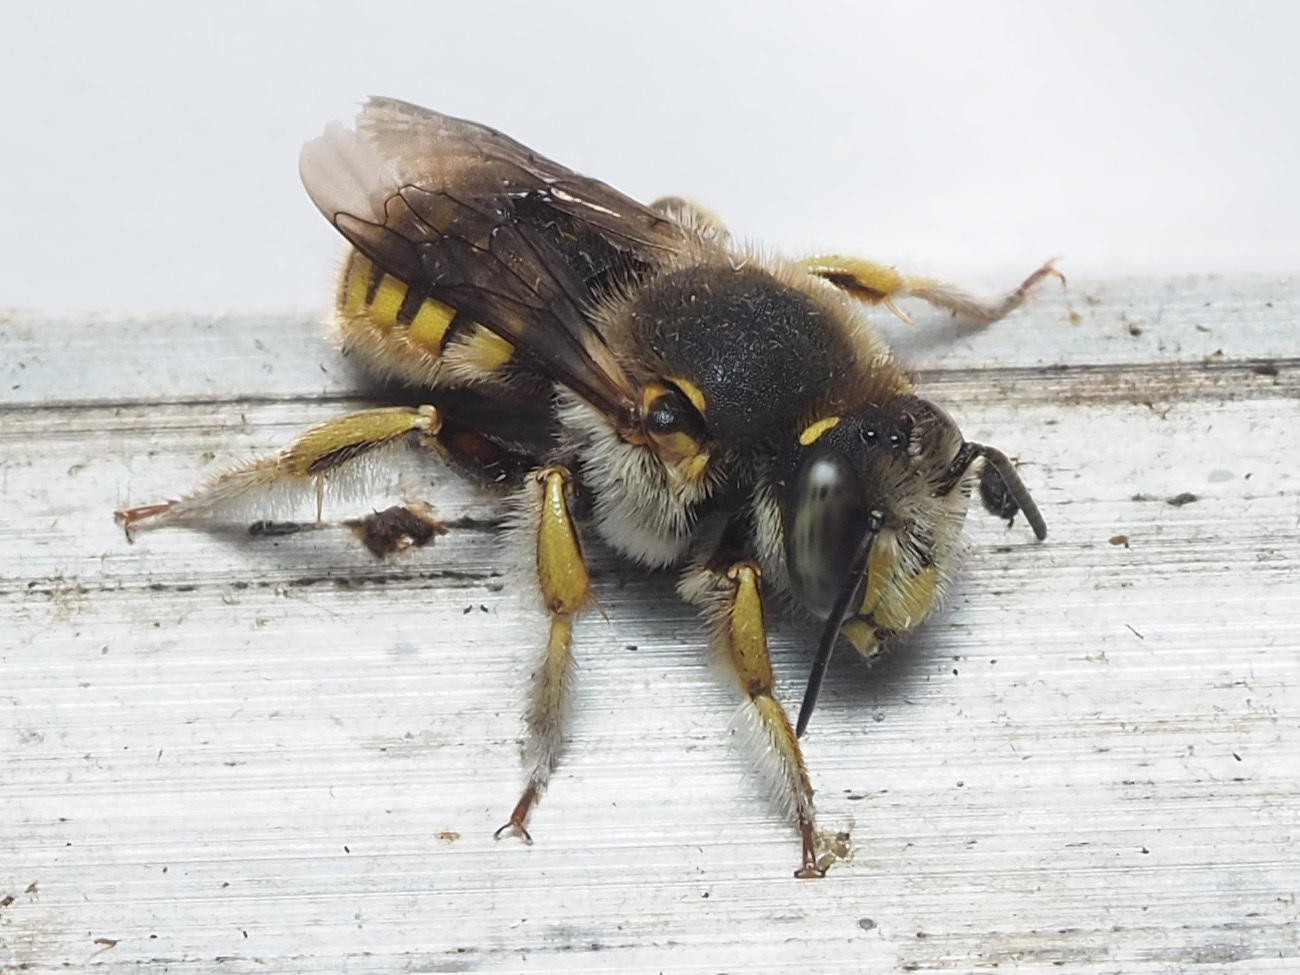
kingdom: Animalia
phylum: Arthropoda
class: Insecta
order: Hymenoptera
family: Megachilidae
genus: Anthidium
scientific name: Anthidium manicatum
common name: Wool carder bee
